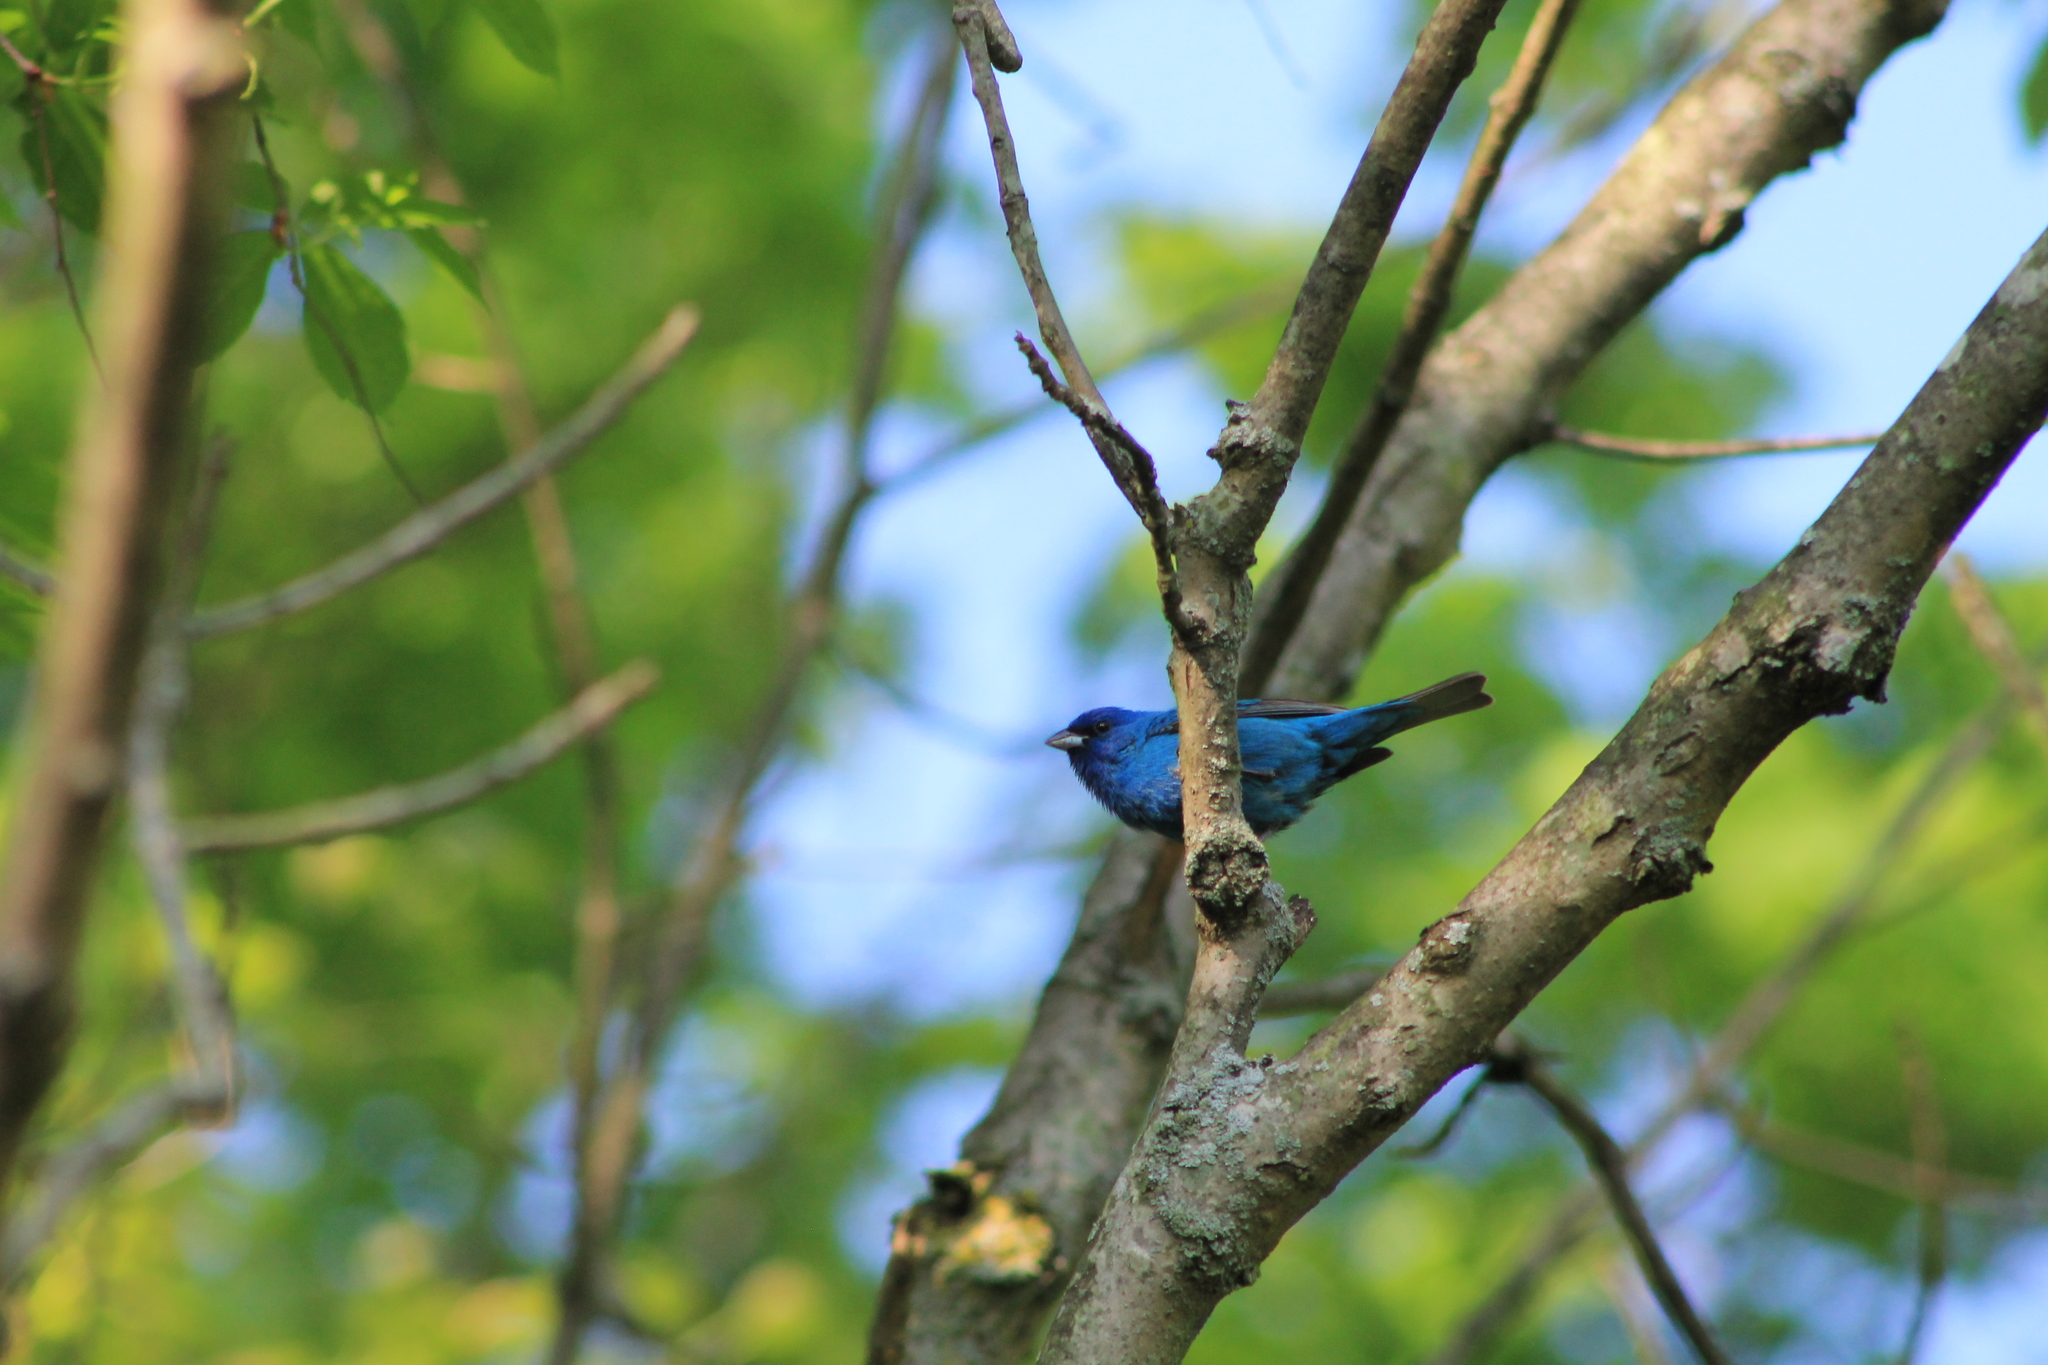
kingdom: Animalia
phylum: Chordata
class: Aves
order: Passeriformes
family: Cardinalidae
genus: Passerina
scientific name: Passerina cyanea
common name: Indigo bunting
